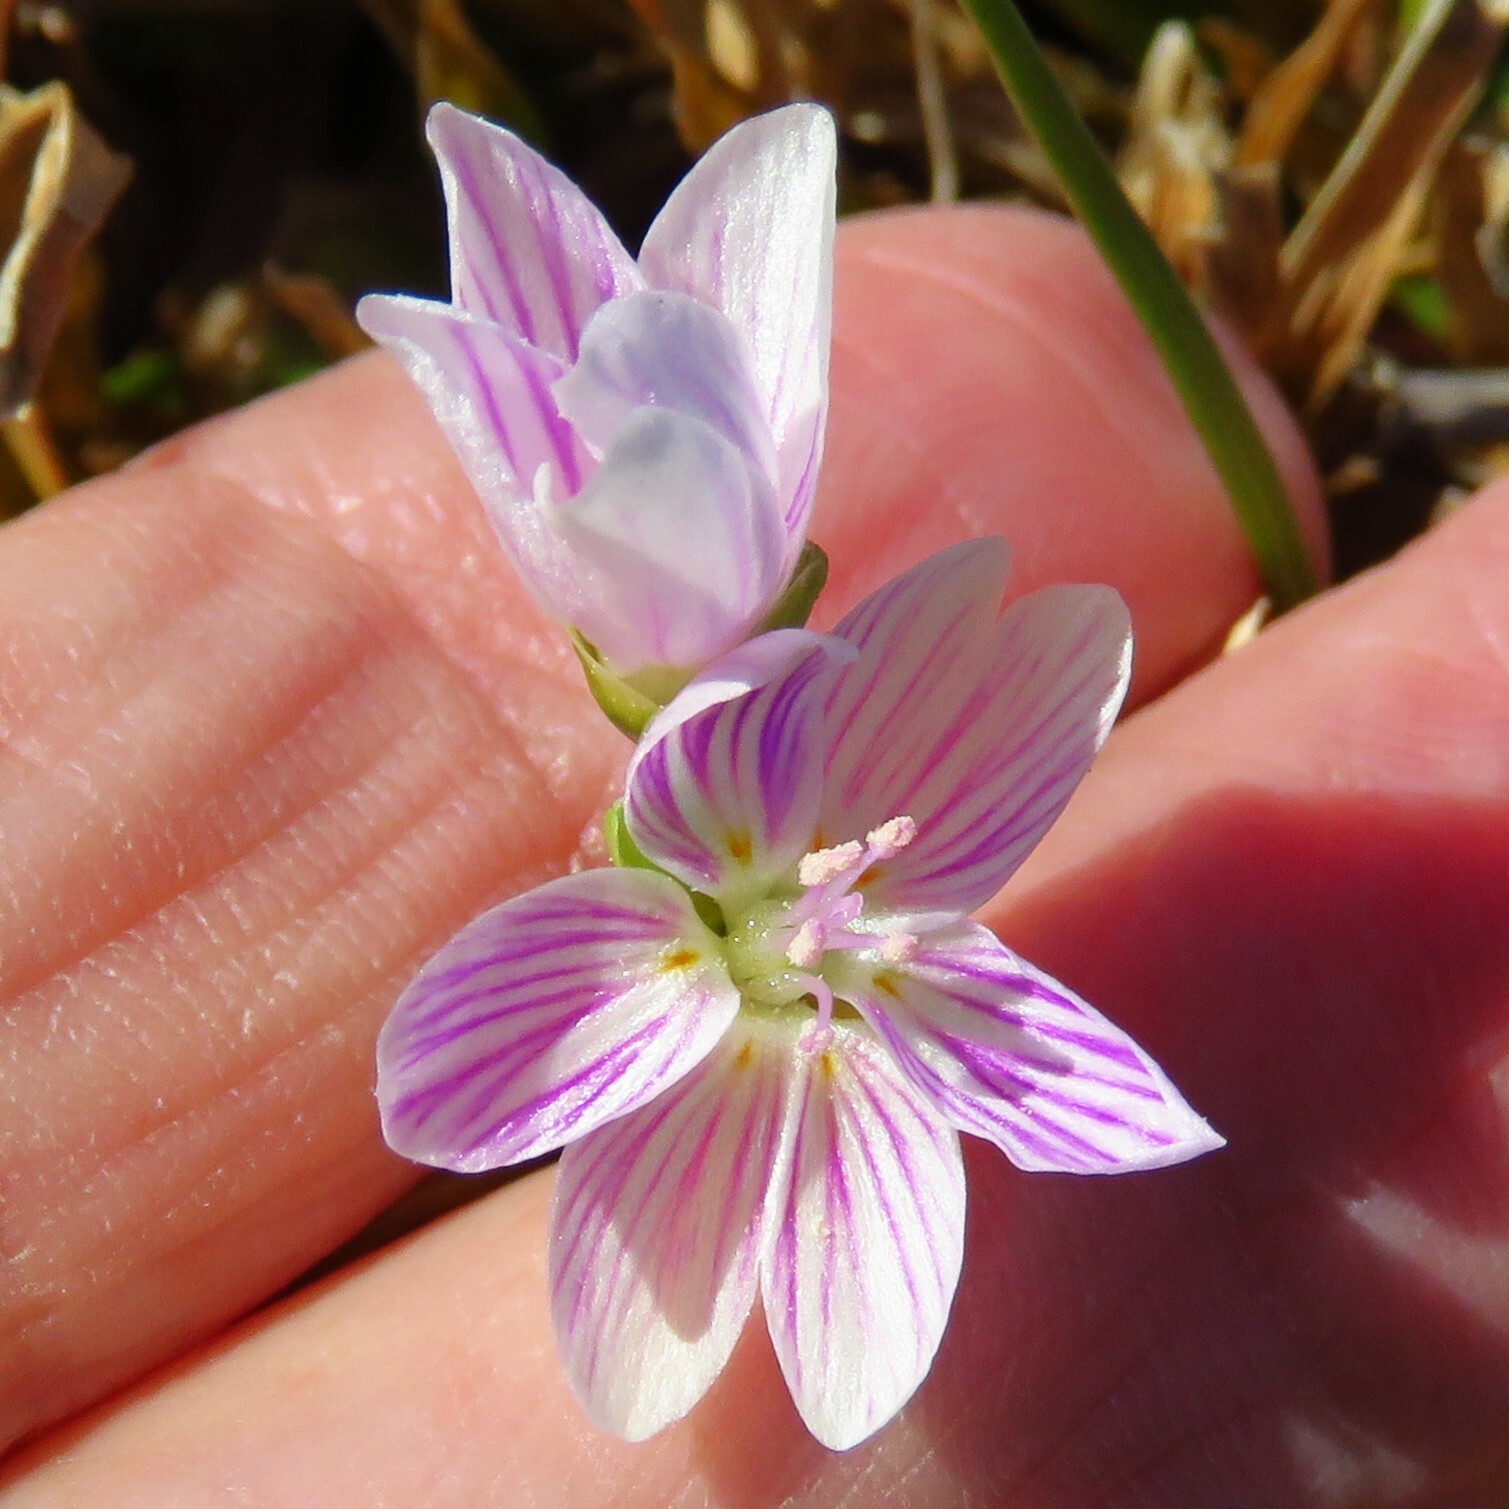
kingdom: Plantae
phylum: Tracheophyta
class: Magnoliopsida
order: Caryophyllales
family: Montiaceae
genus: Claytonia
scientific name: Claytonia virginica
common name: Virginia springbeauty
